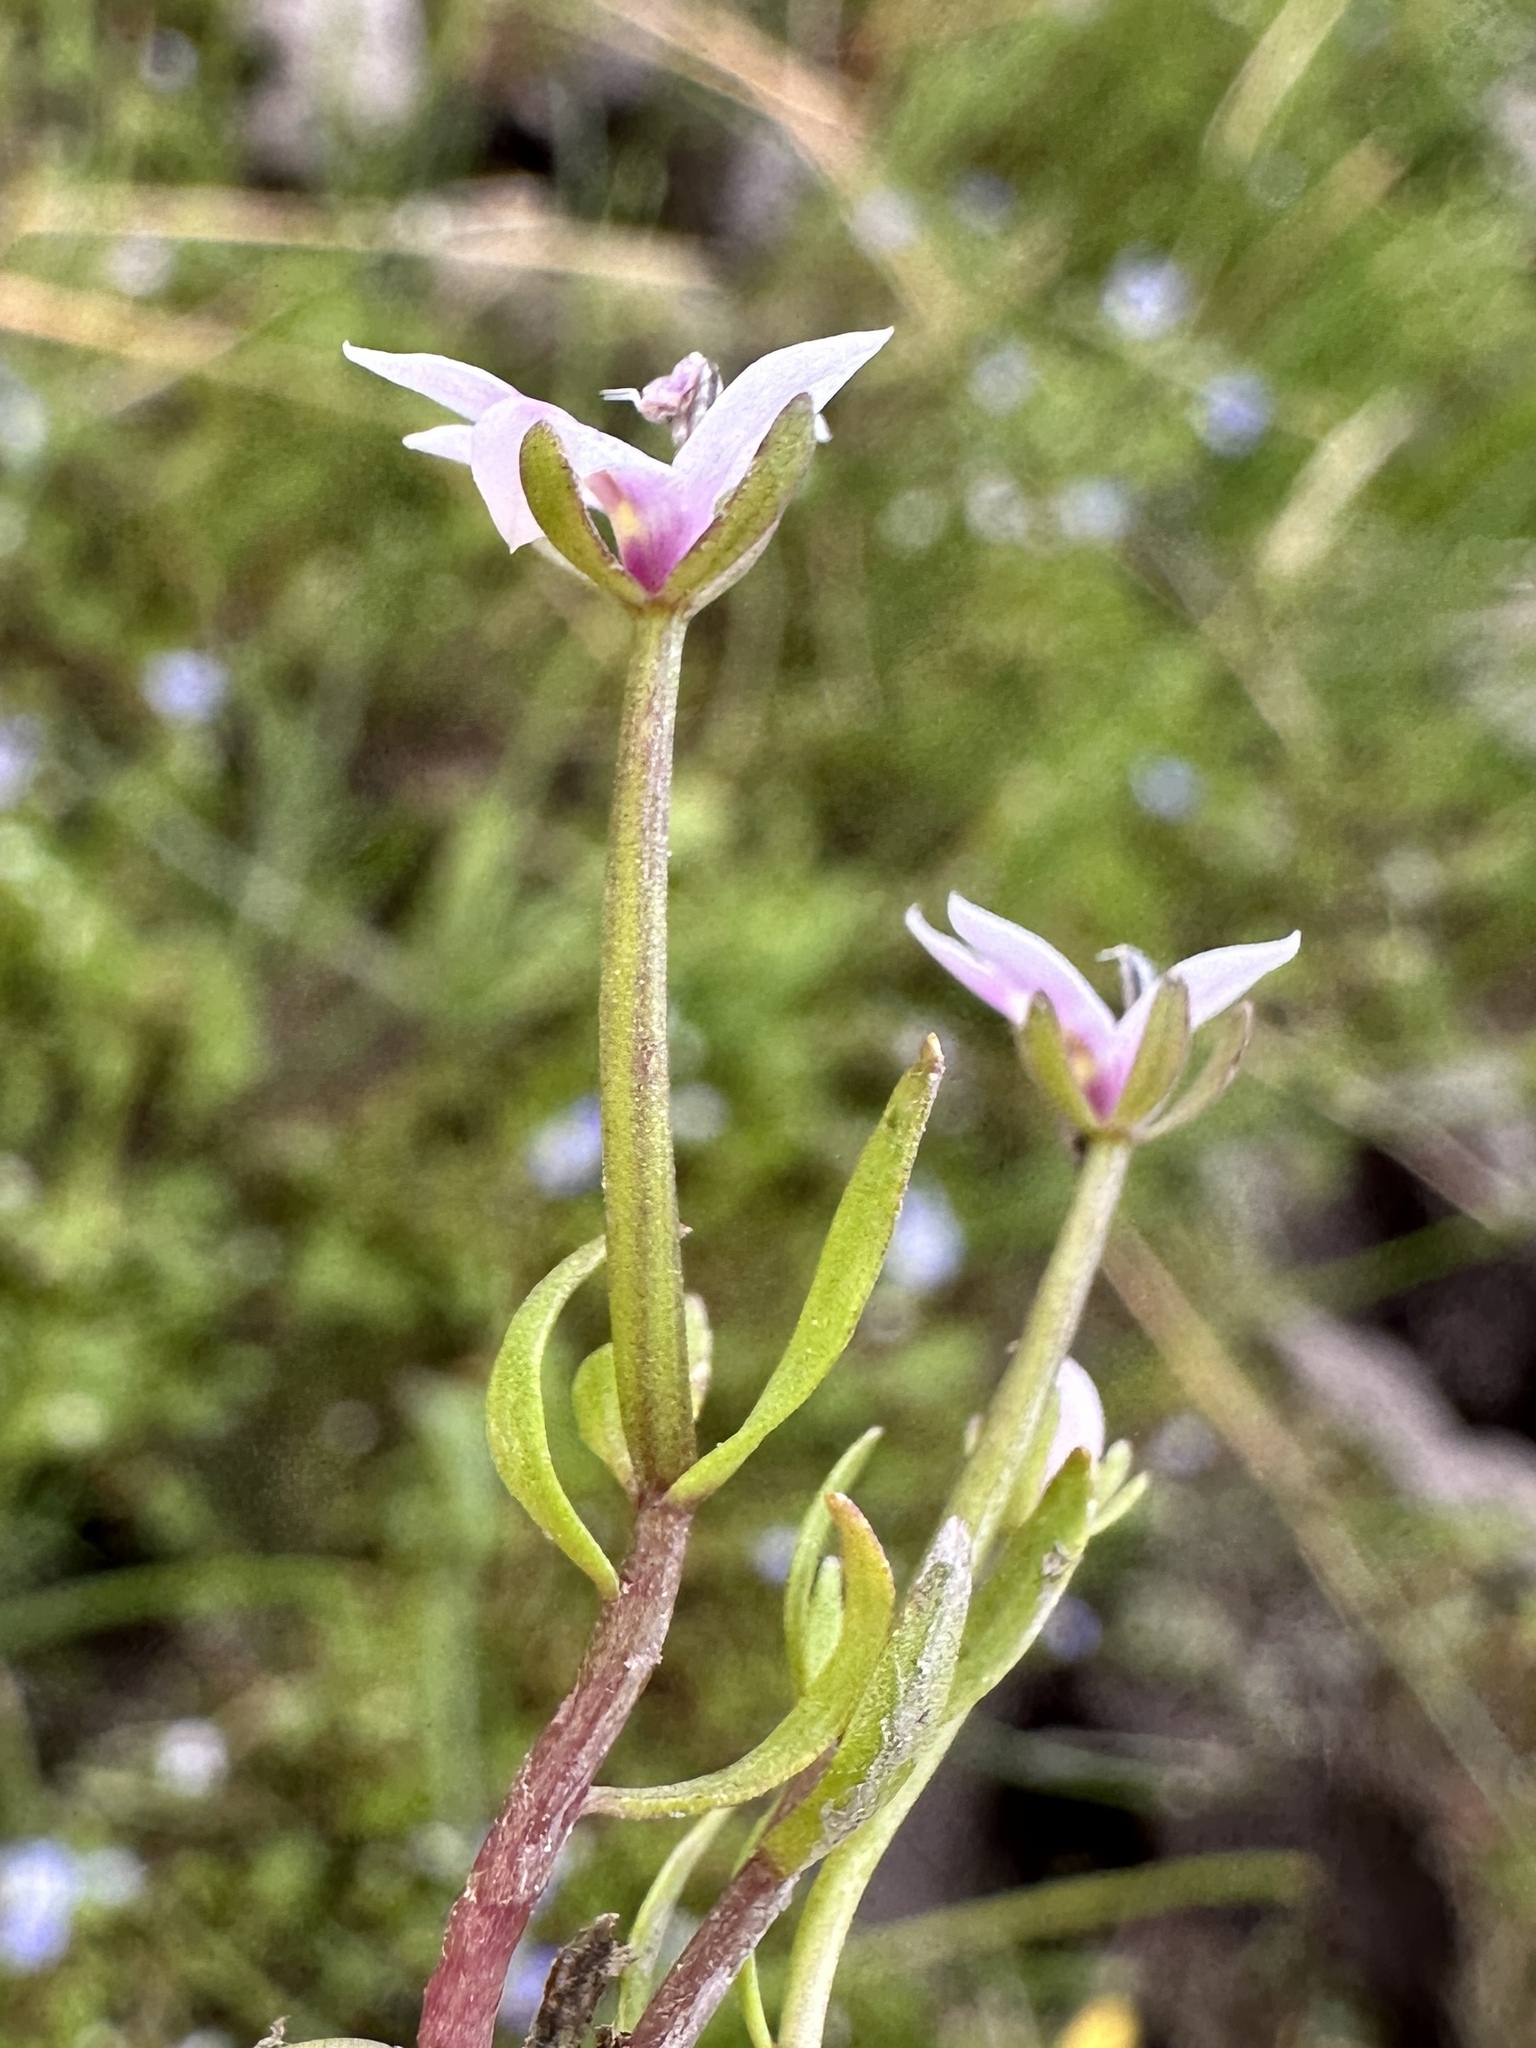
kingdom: Plantae
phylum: Tracheophyta
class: Magnoliopsida
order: Asterales
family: Campanulaceae
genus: Downingia
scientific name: Downingia laeta
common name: Great basin calicoflower
